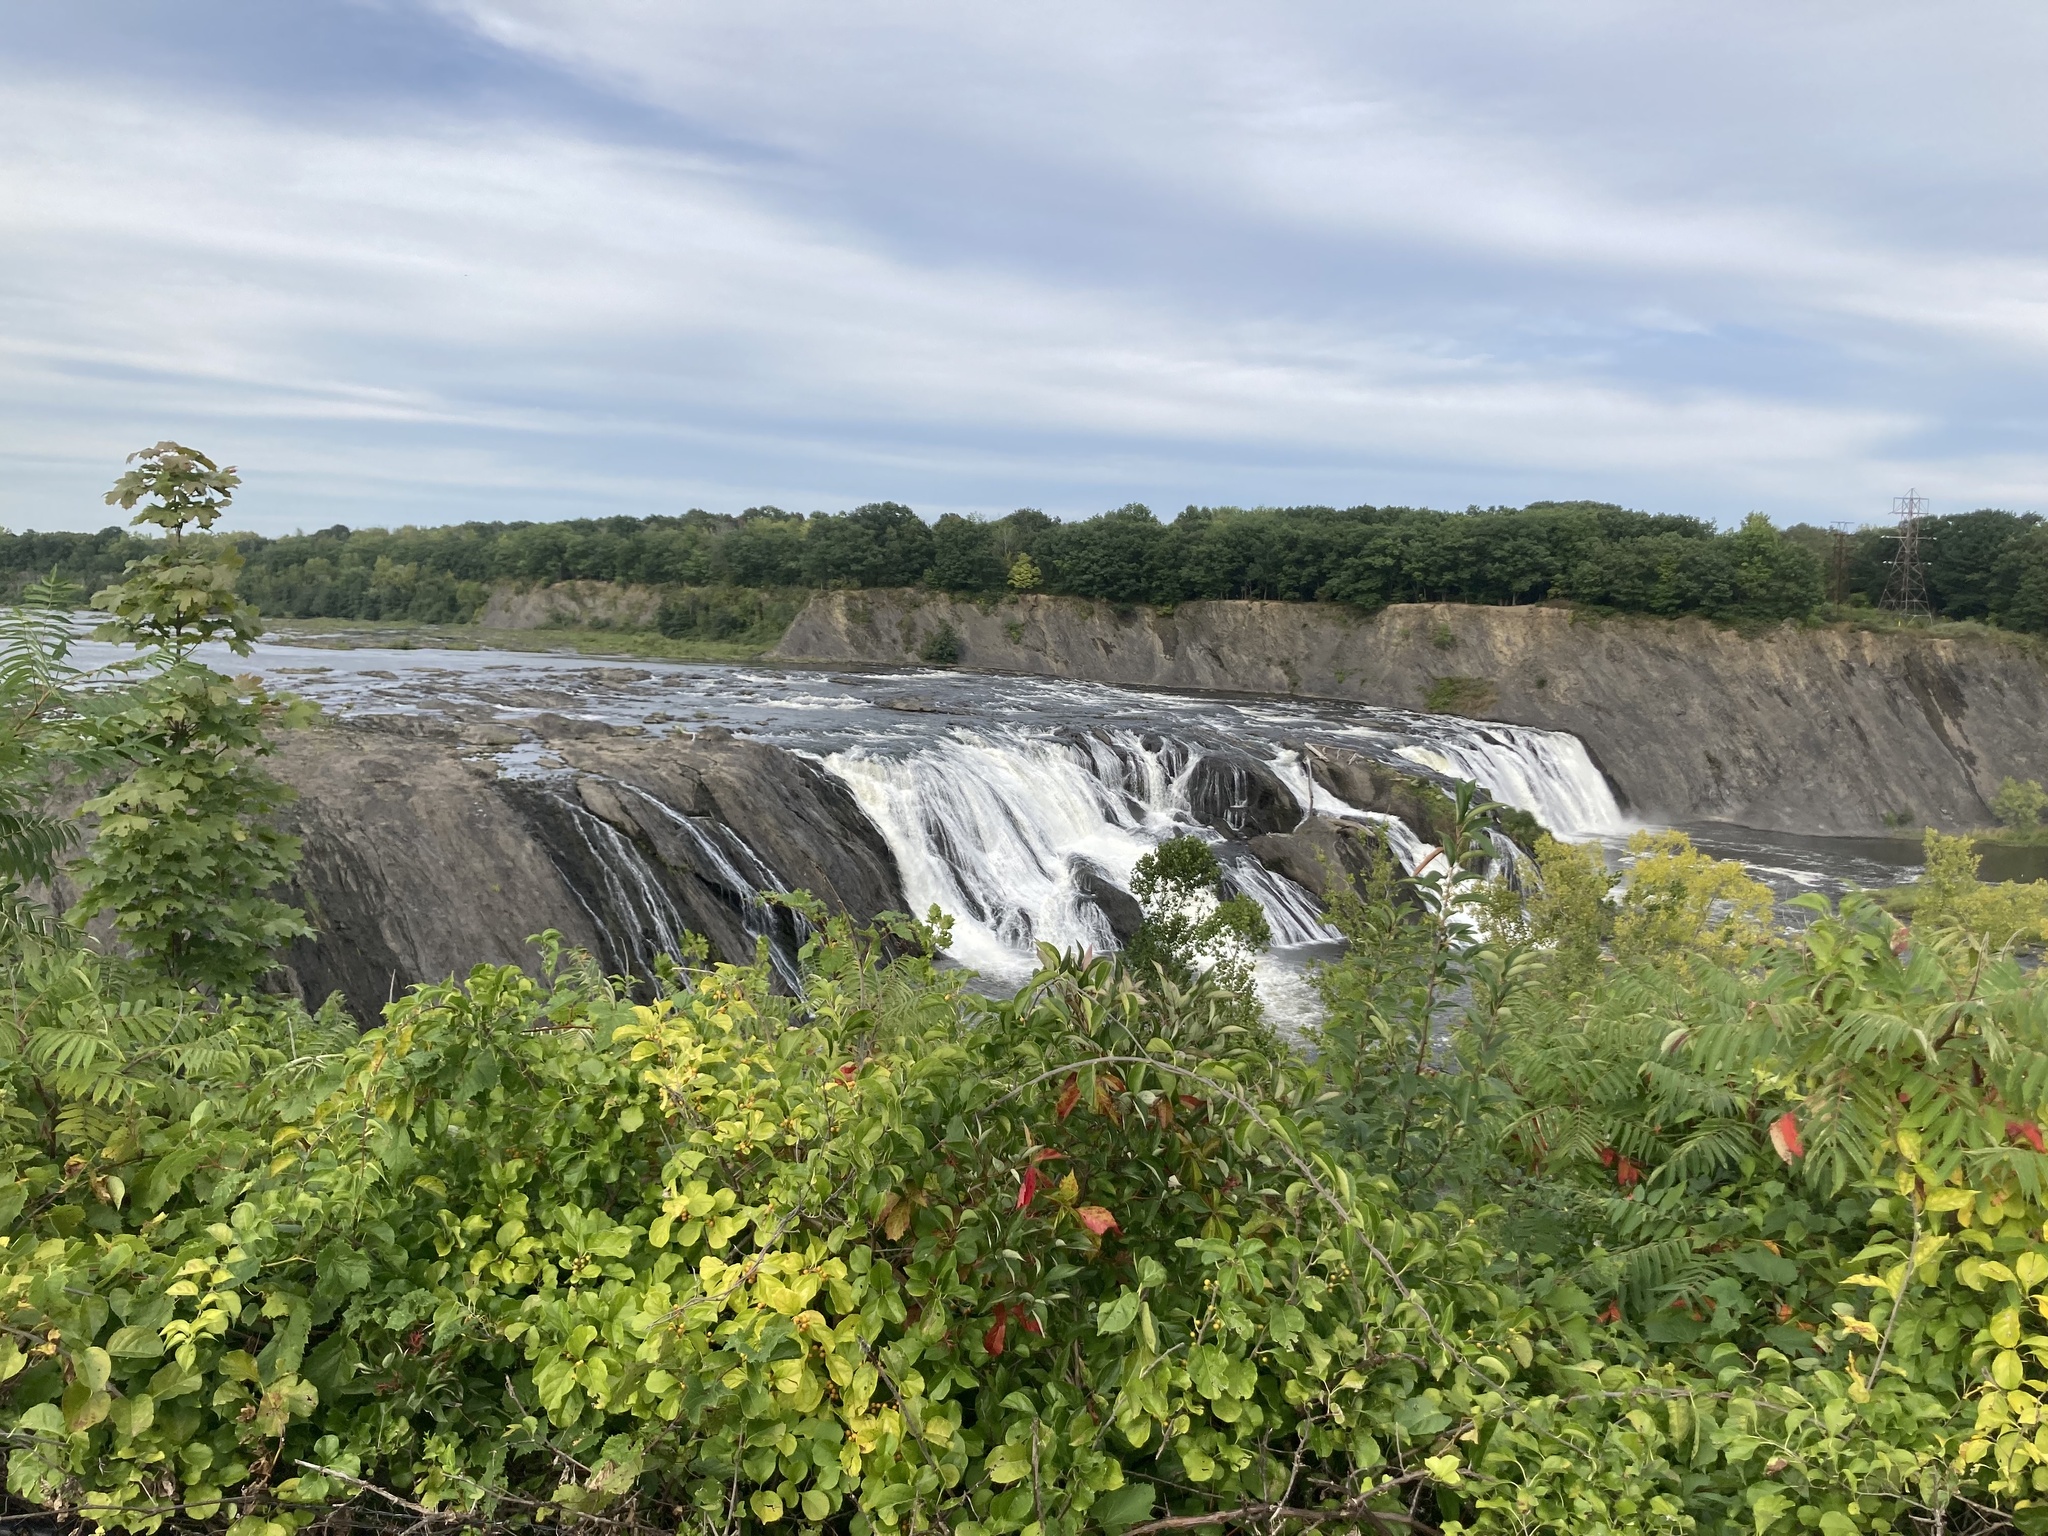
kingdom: Plantae
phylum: Tracheophyta
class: Magnoliopsida
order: Vitales
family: Vitaceae
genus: Vitis
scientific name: Vitis
